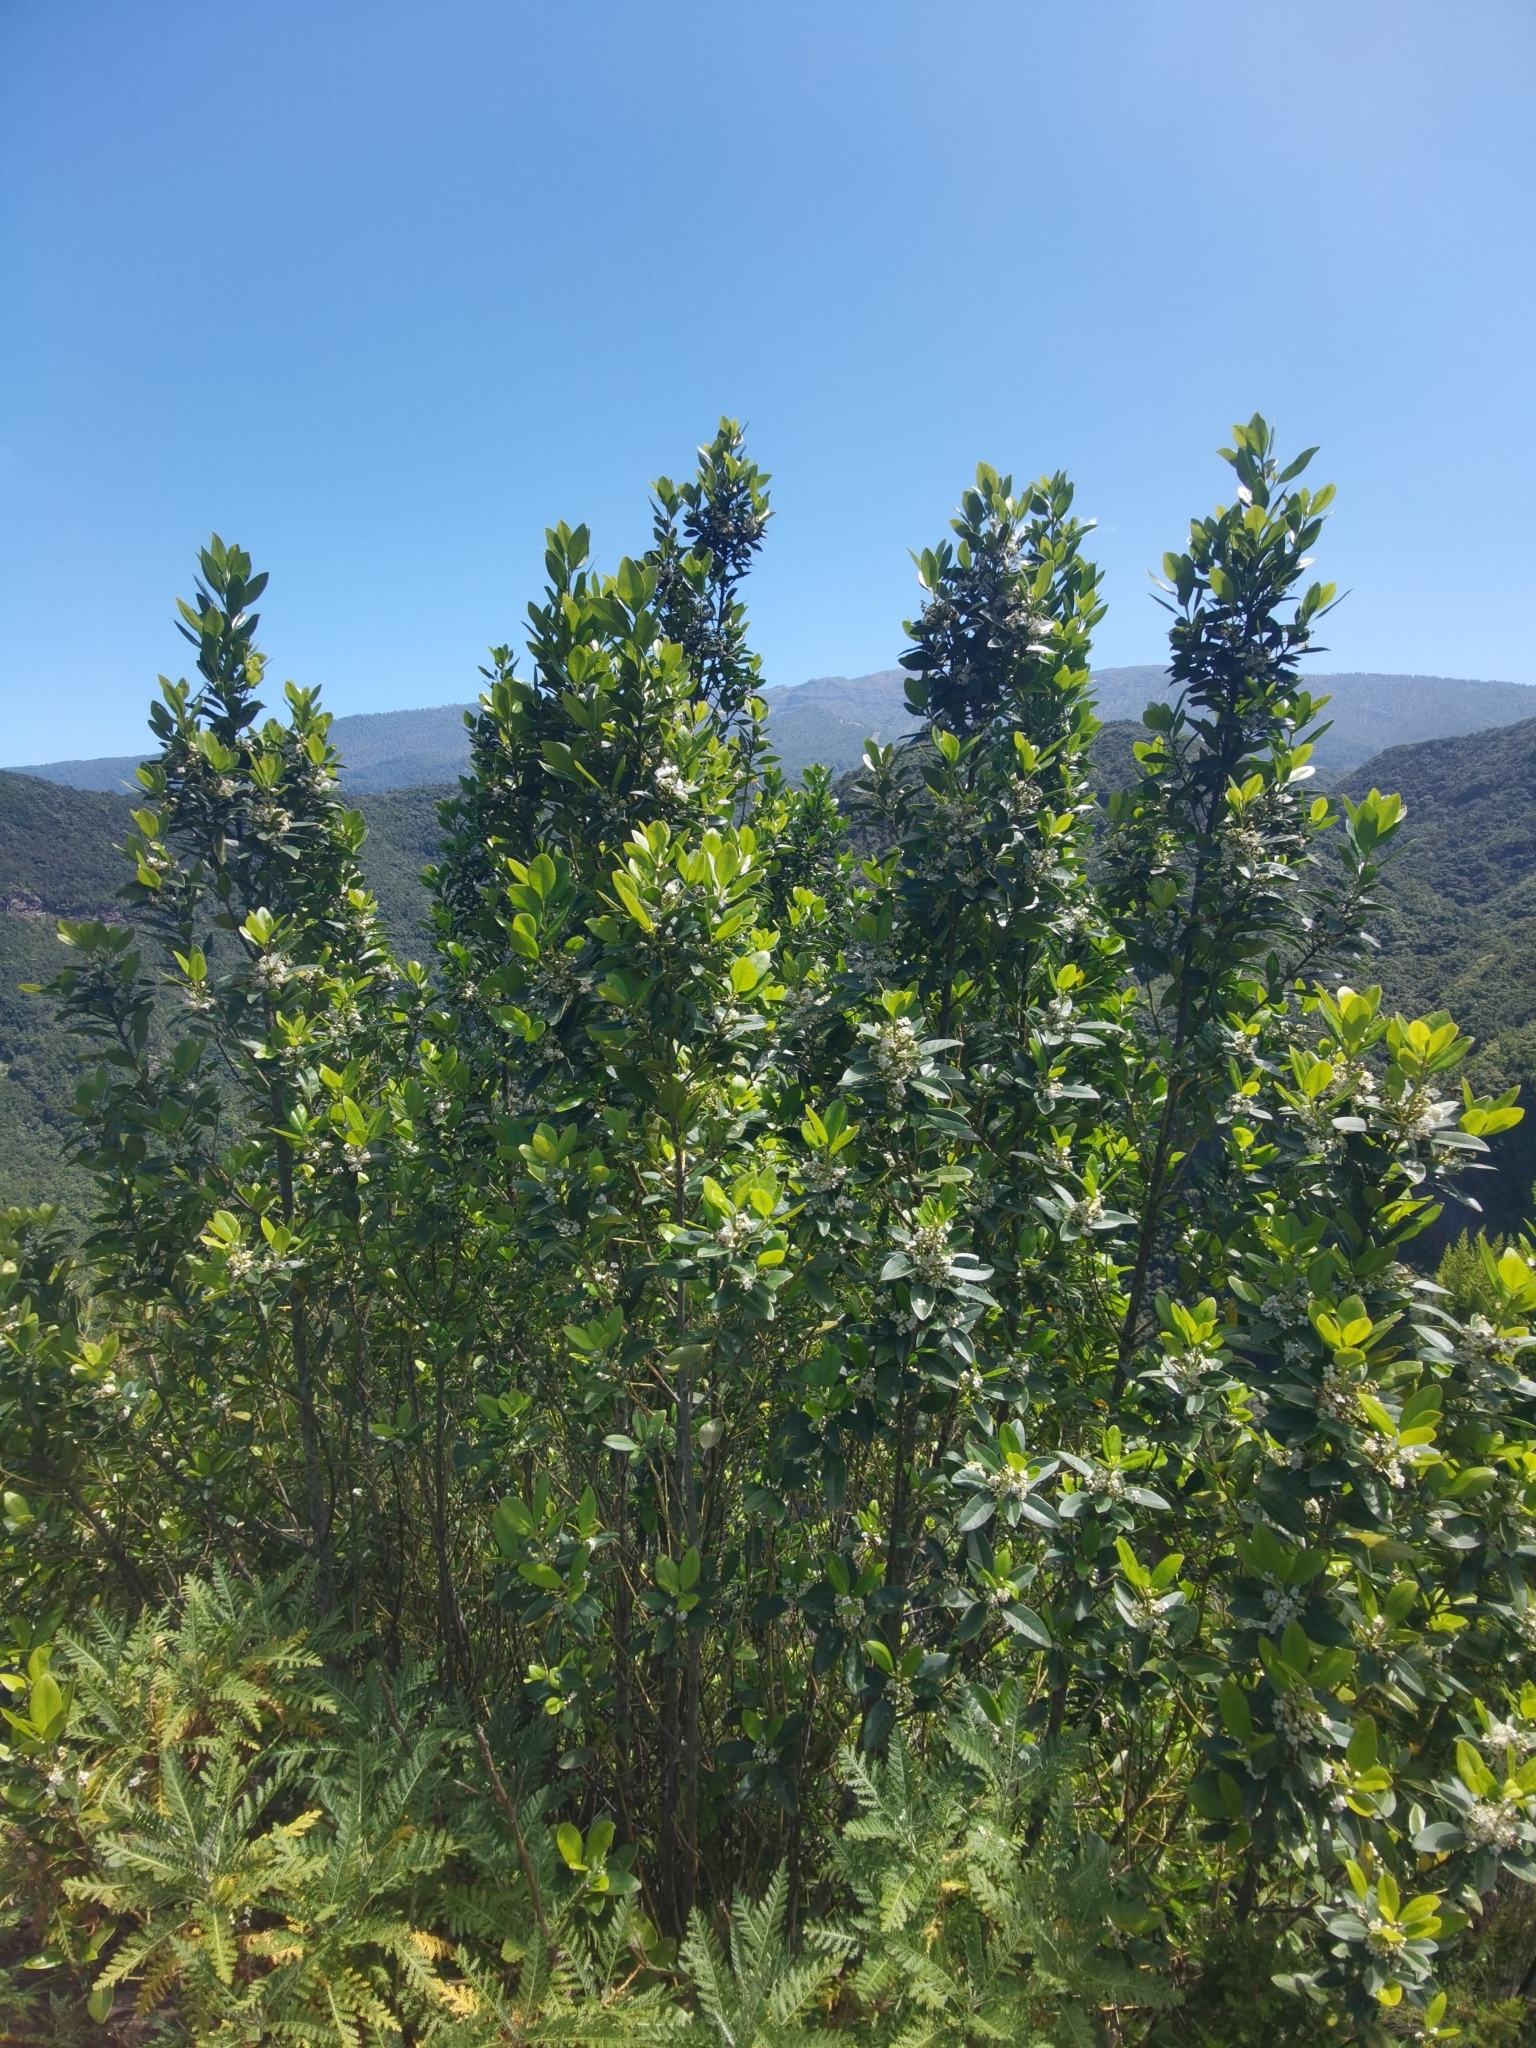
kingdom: Plantae
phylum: Tracheophyta
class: Magnoliopsida
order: Aquifoliales
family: Aquifoliaceae
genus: Ilex
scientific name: Ilex canariensis
